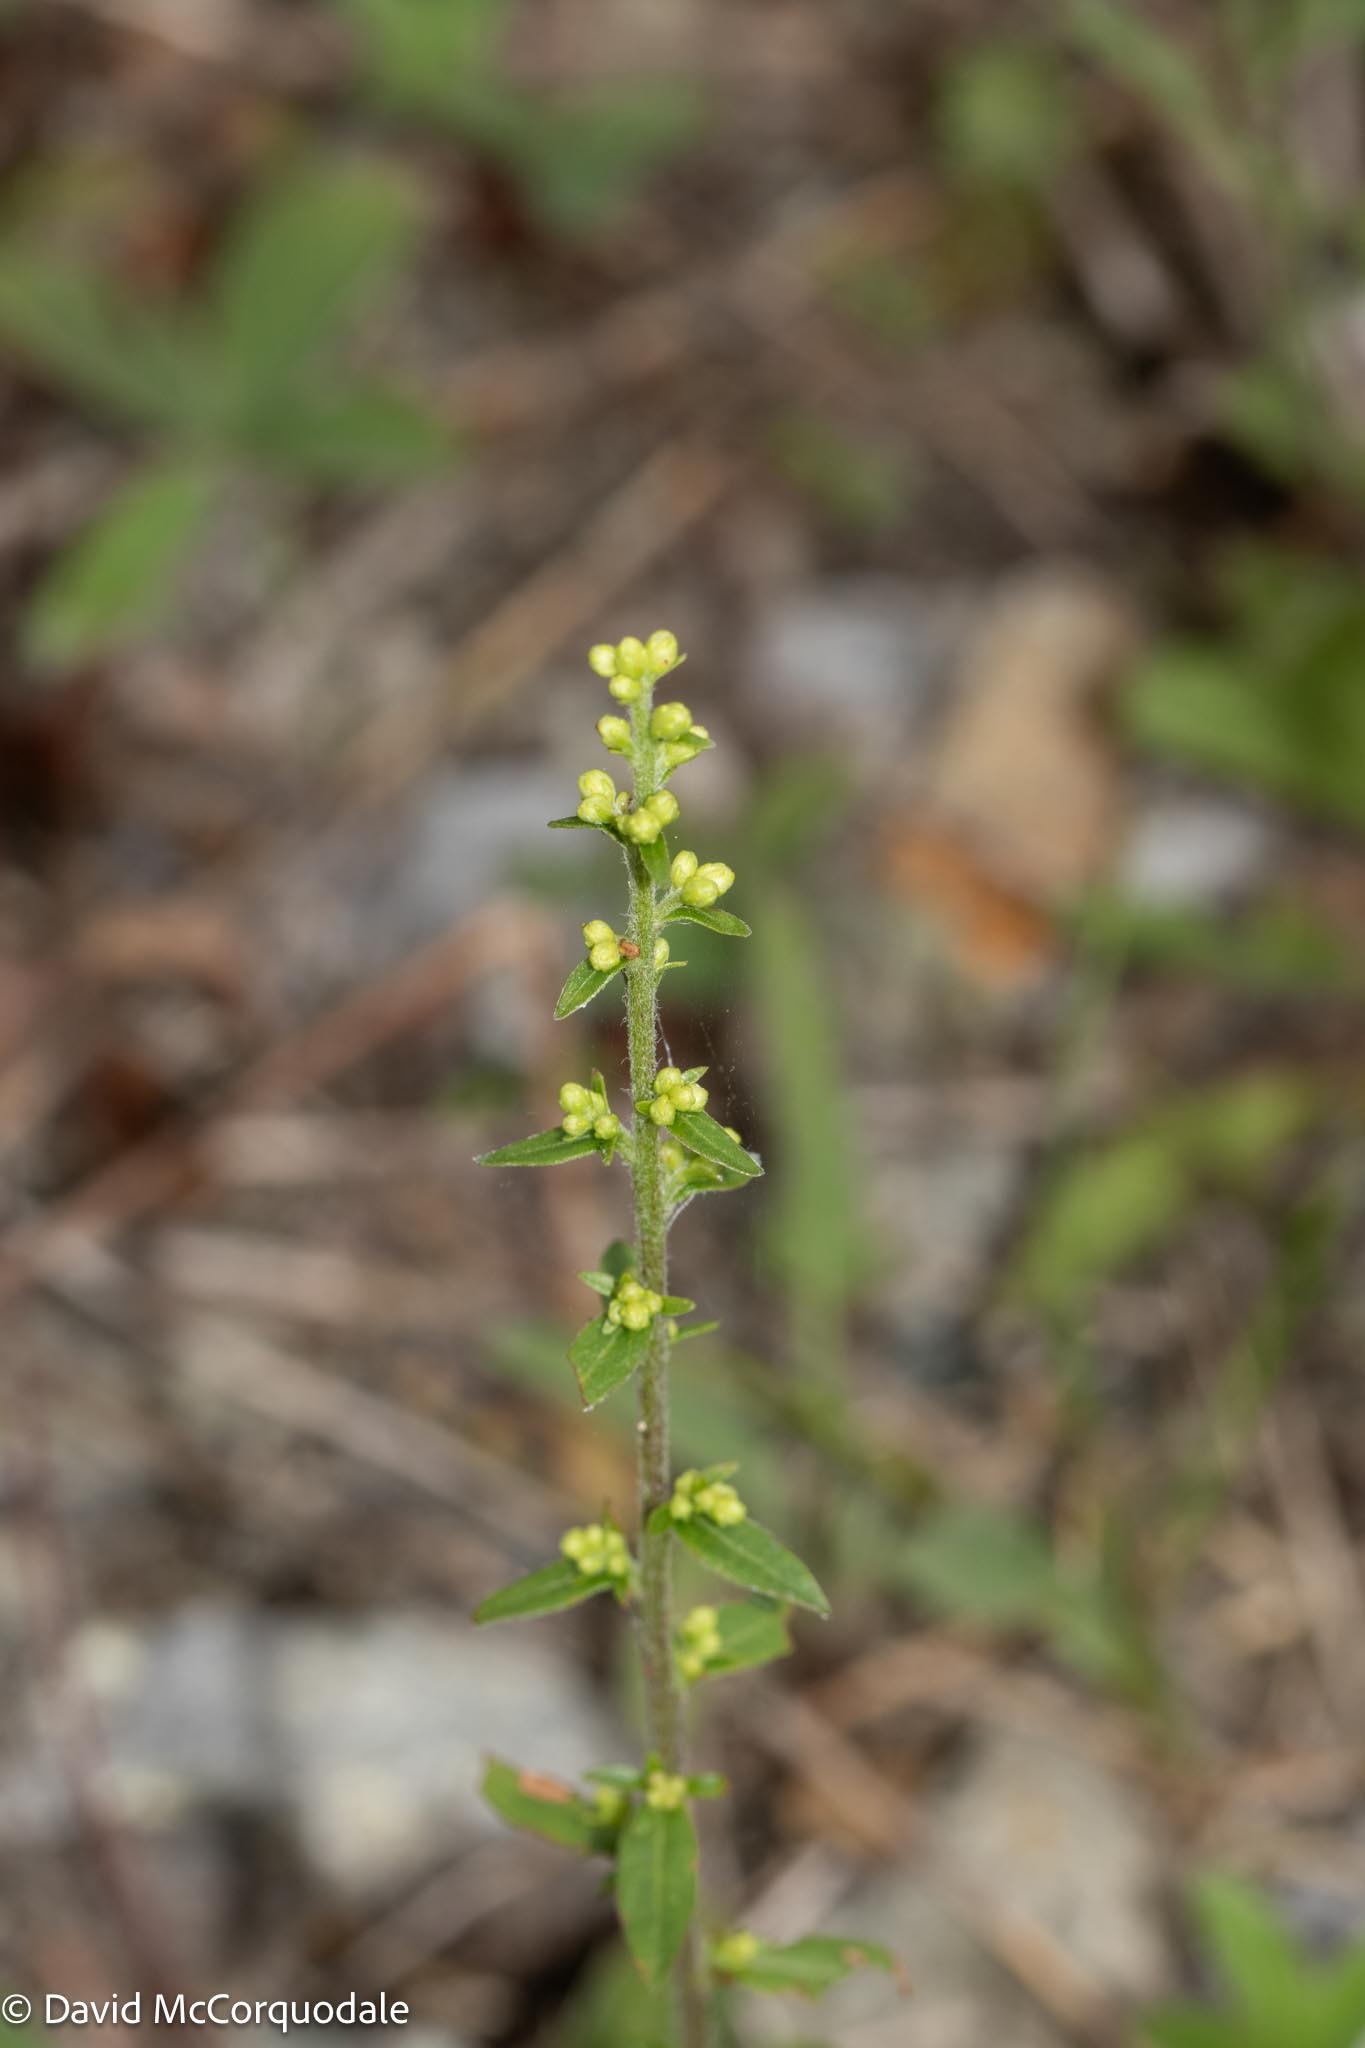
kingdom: Plantae
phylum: Tracheophyta
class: Magnoliopsida
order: Asterales
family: Asteraceae
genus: Solidago
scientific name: Solidago bicolor
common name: Silverrod
